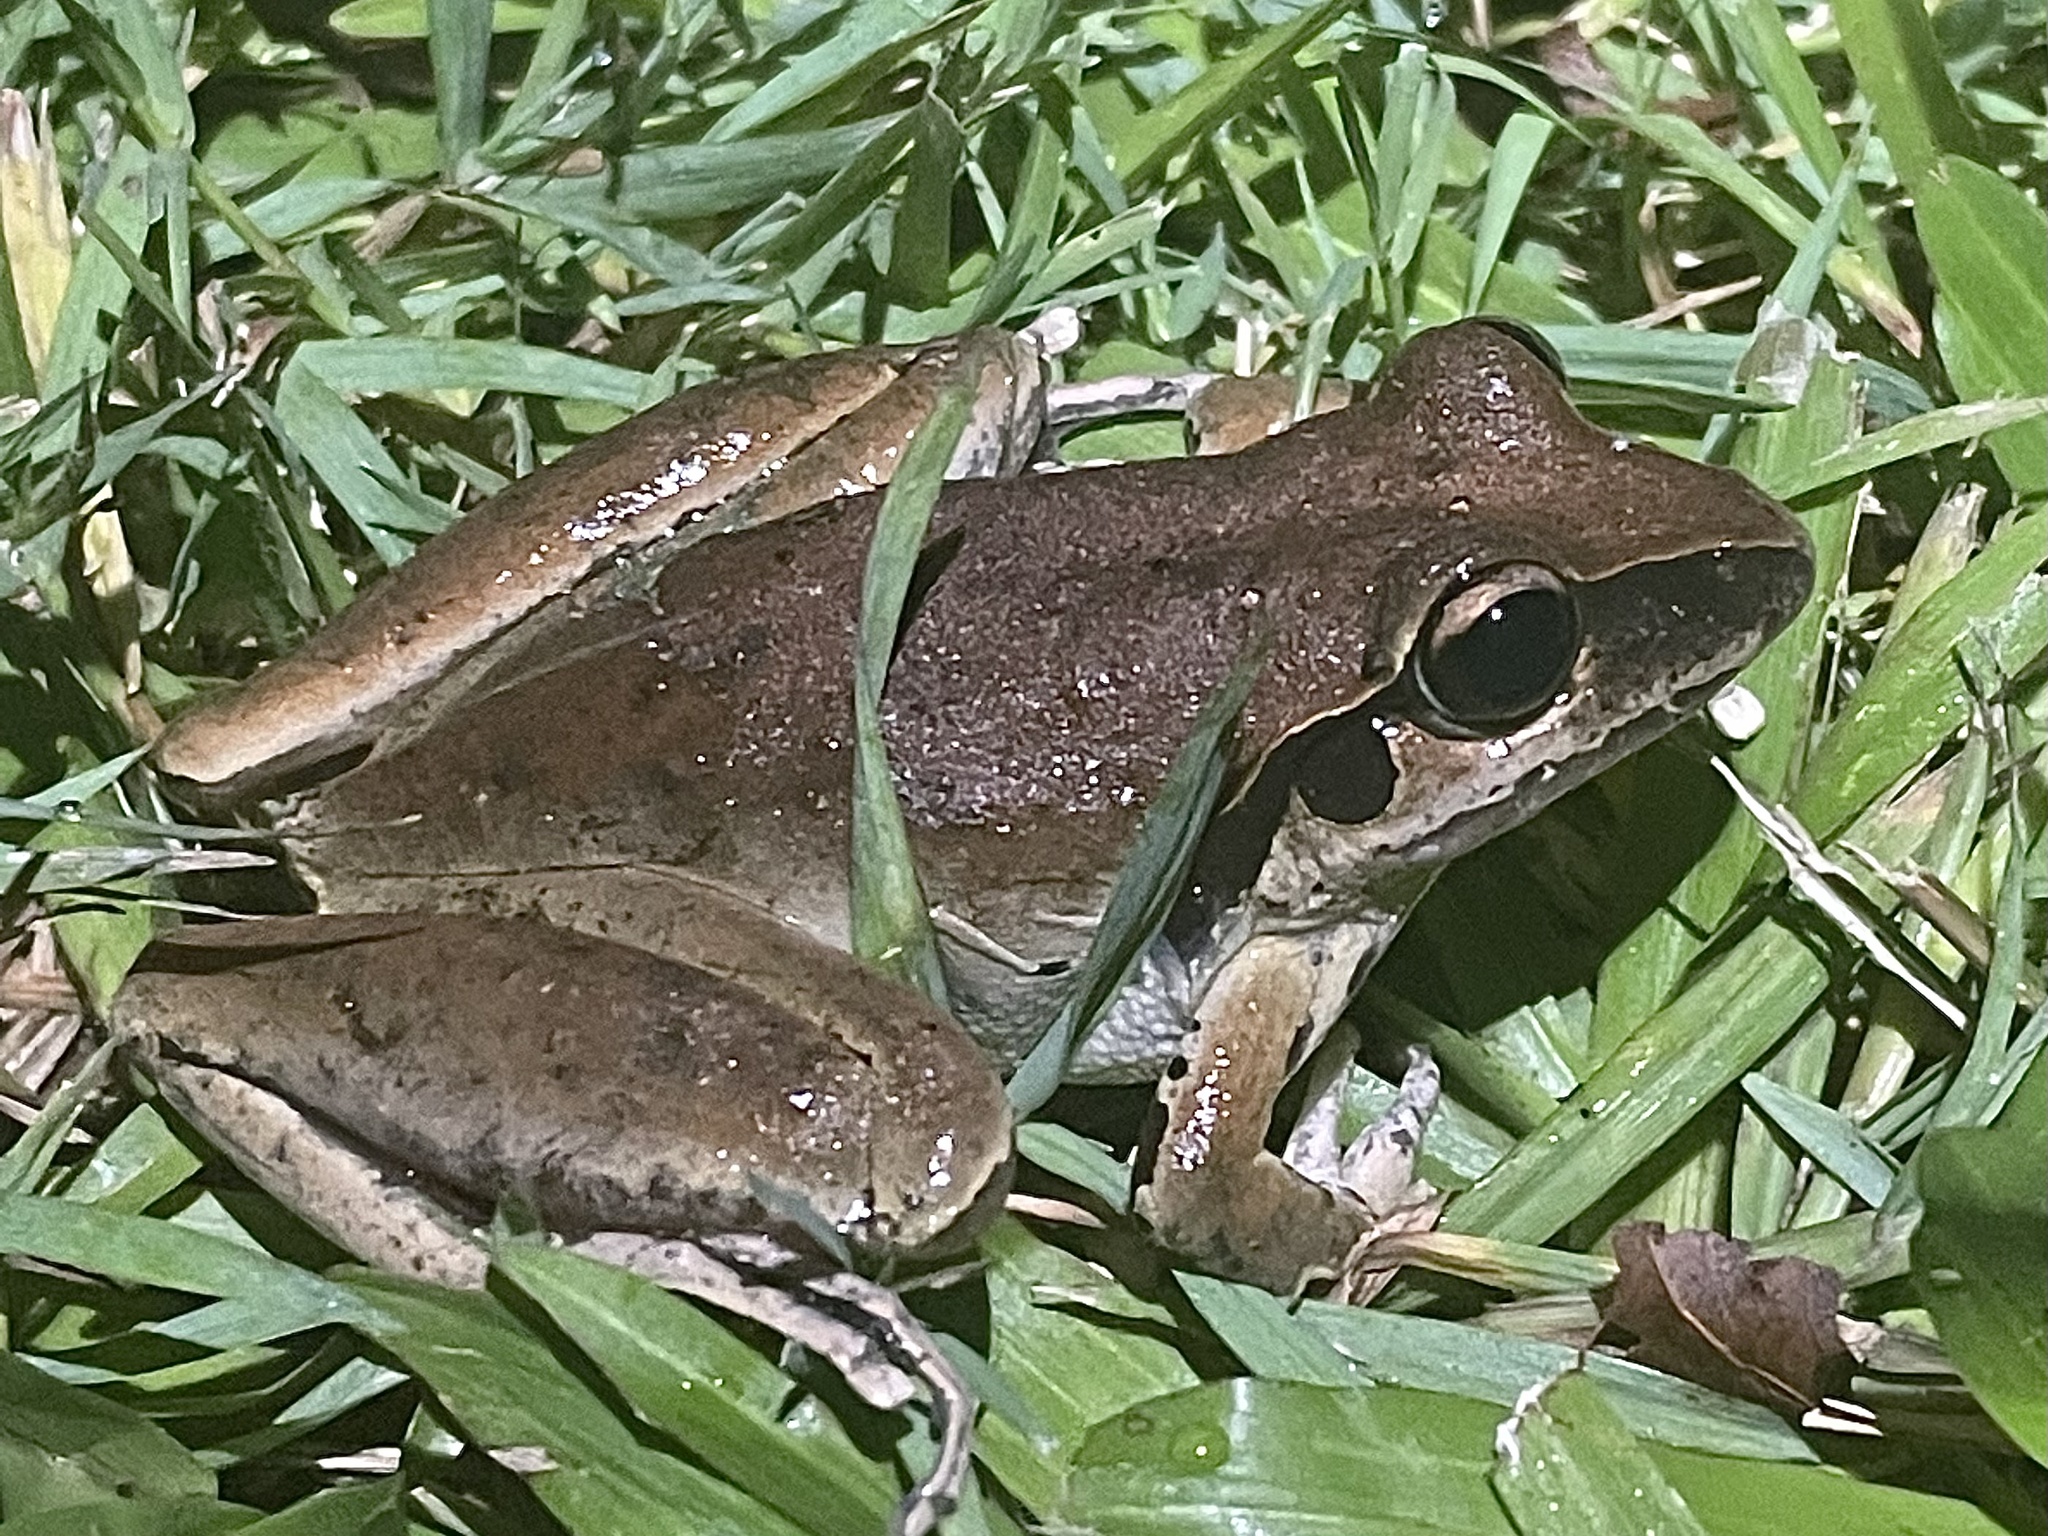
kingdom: Animalia
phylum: Chordata
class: Amphibia
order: Anura
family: Pelodryadidae
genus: Litoria
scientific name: Litoria latopalmata
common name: Broad-palmed rocket frog
